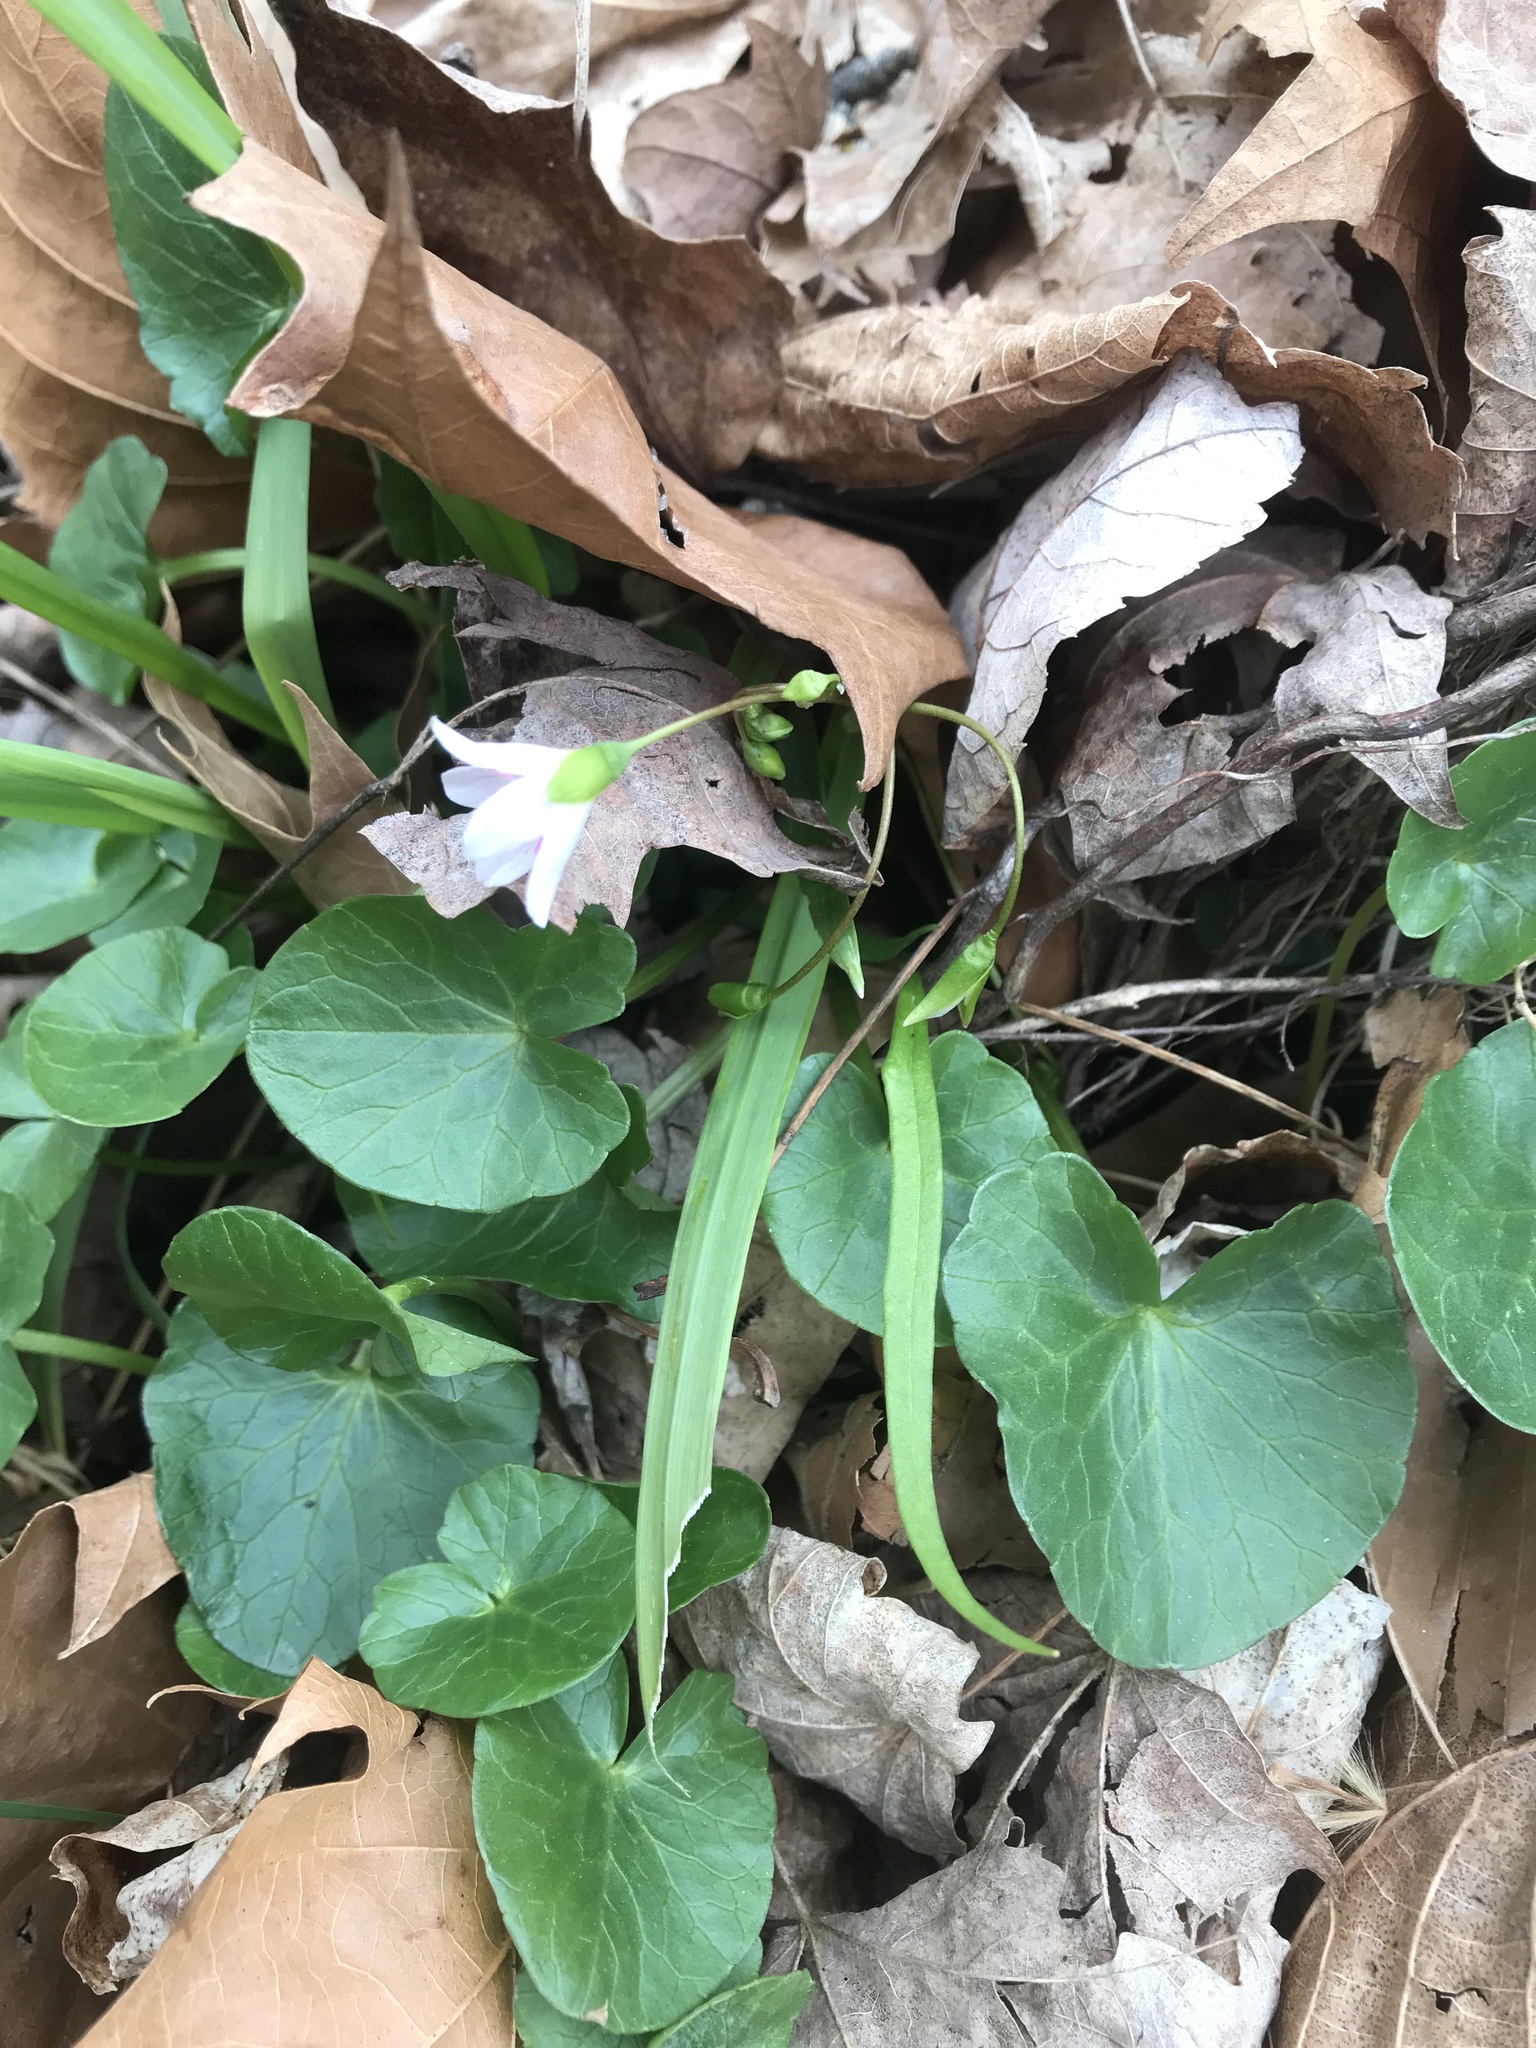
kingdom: Plantae
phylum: Tracheophyta
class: Magnoliopsida
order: Caryophyllales
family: Montiaceae
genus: Claytonia
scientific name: Claytonia virginica
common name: Virginia springbeauty
